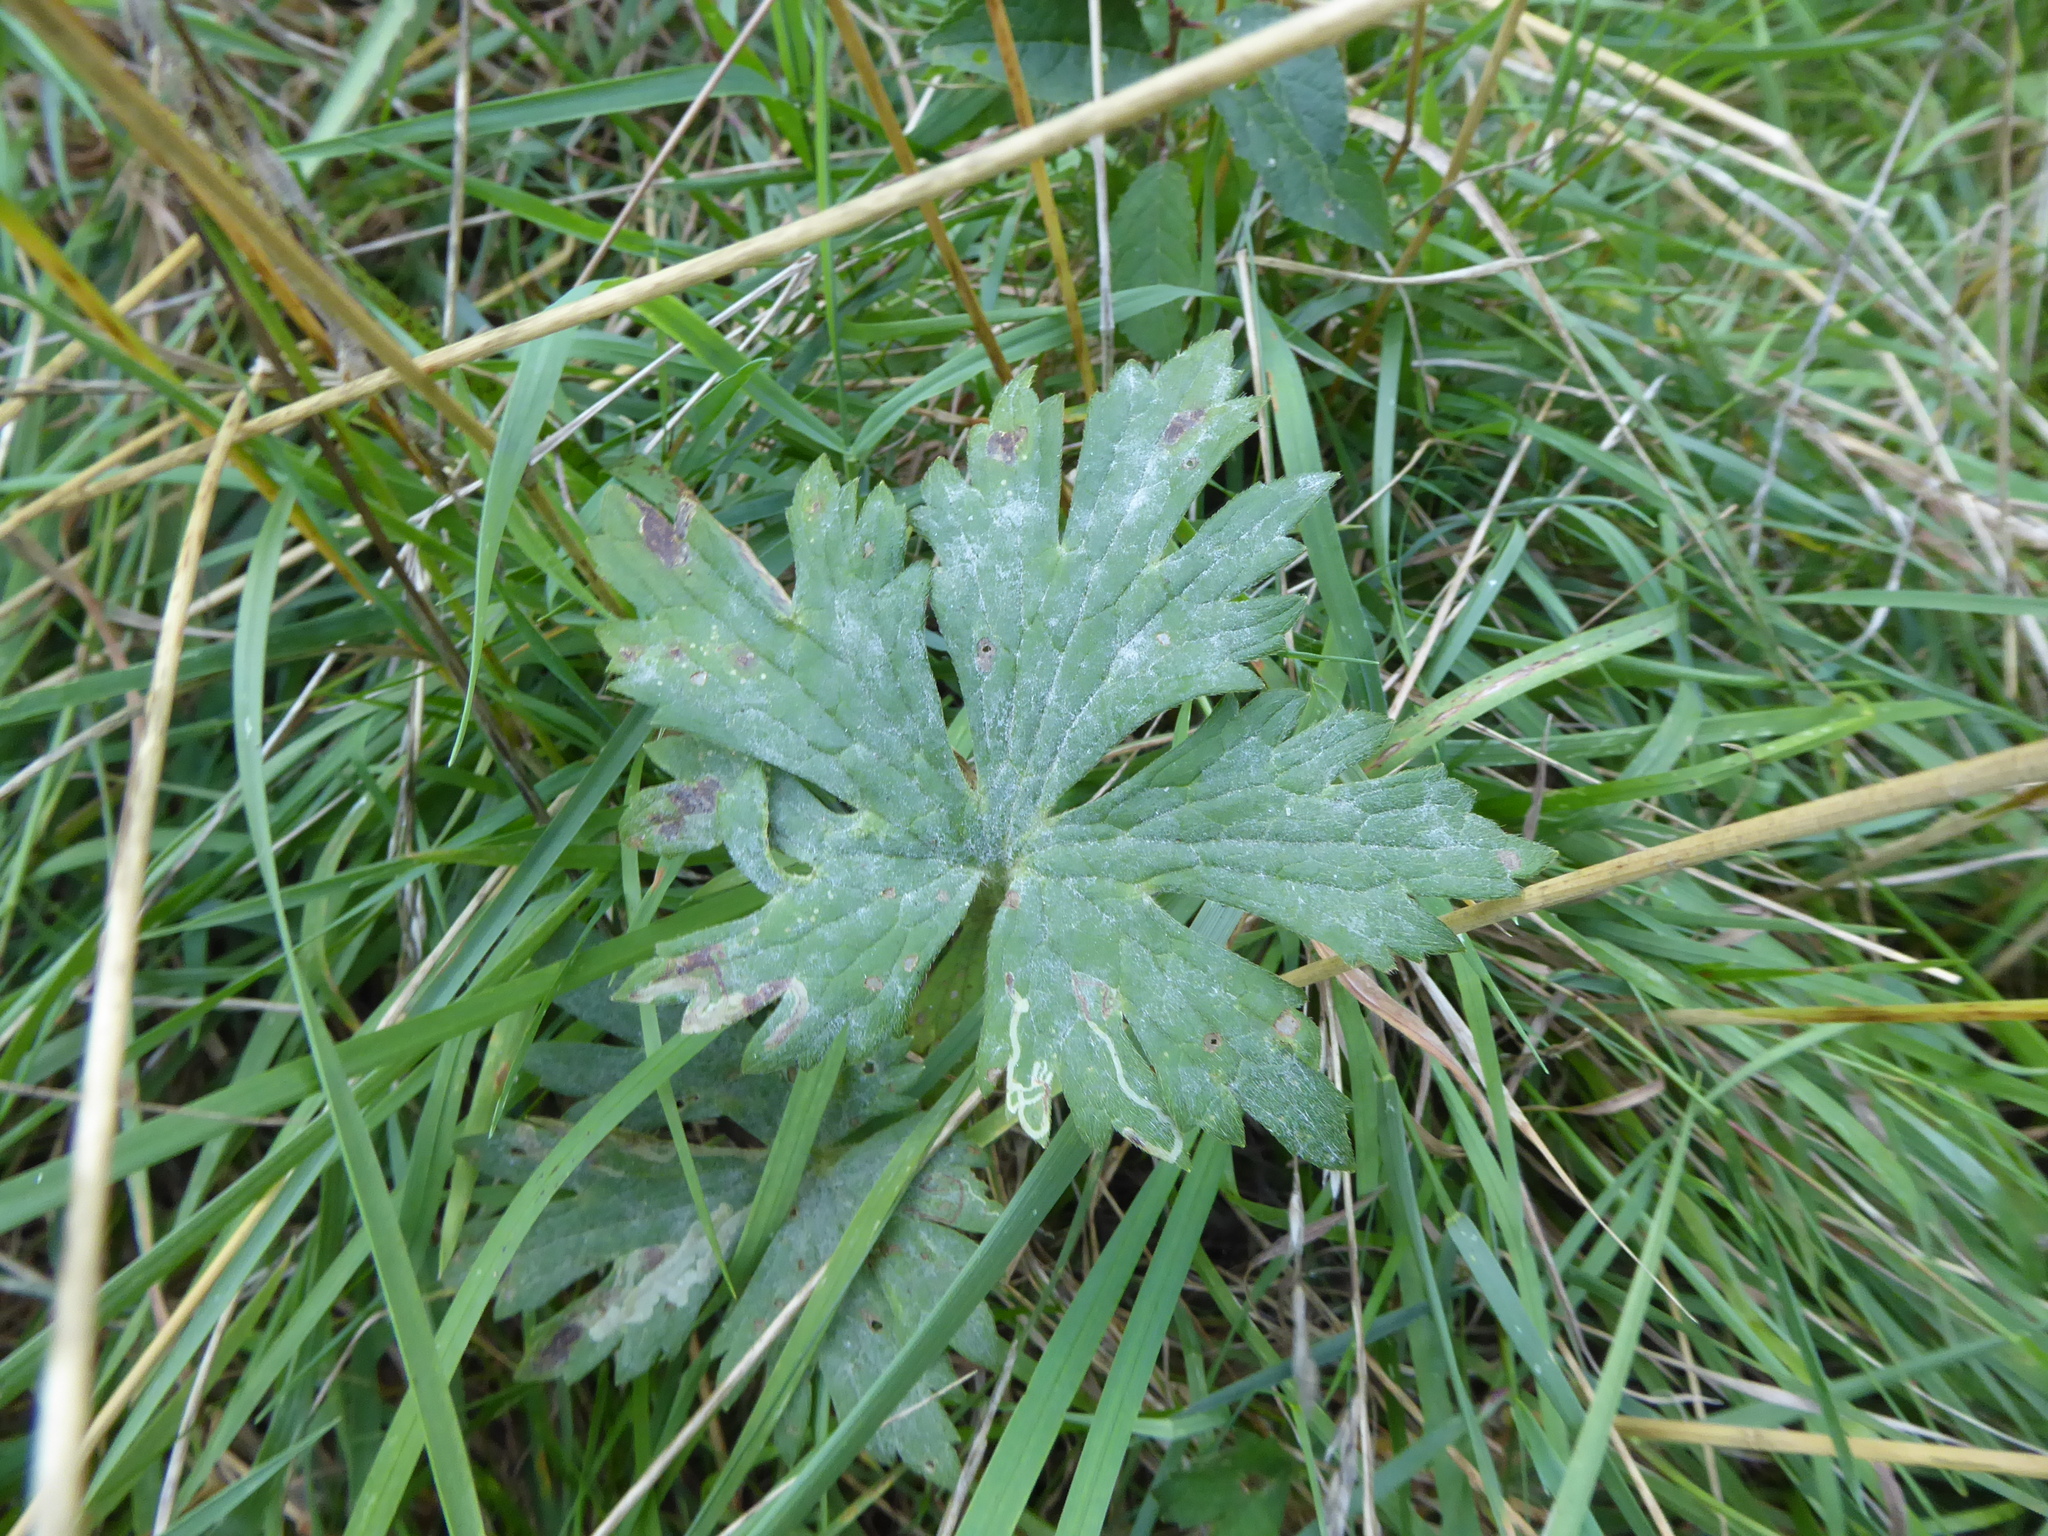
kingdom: Fungi
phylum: Ascomycota
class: Leotiomycetes
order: Helotiales
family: Erysiphaceae
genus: Erysiphe
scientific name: Erysiphe aquilegiae
